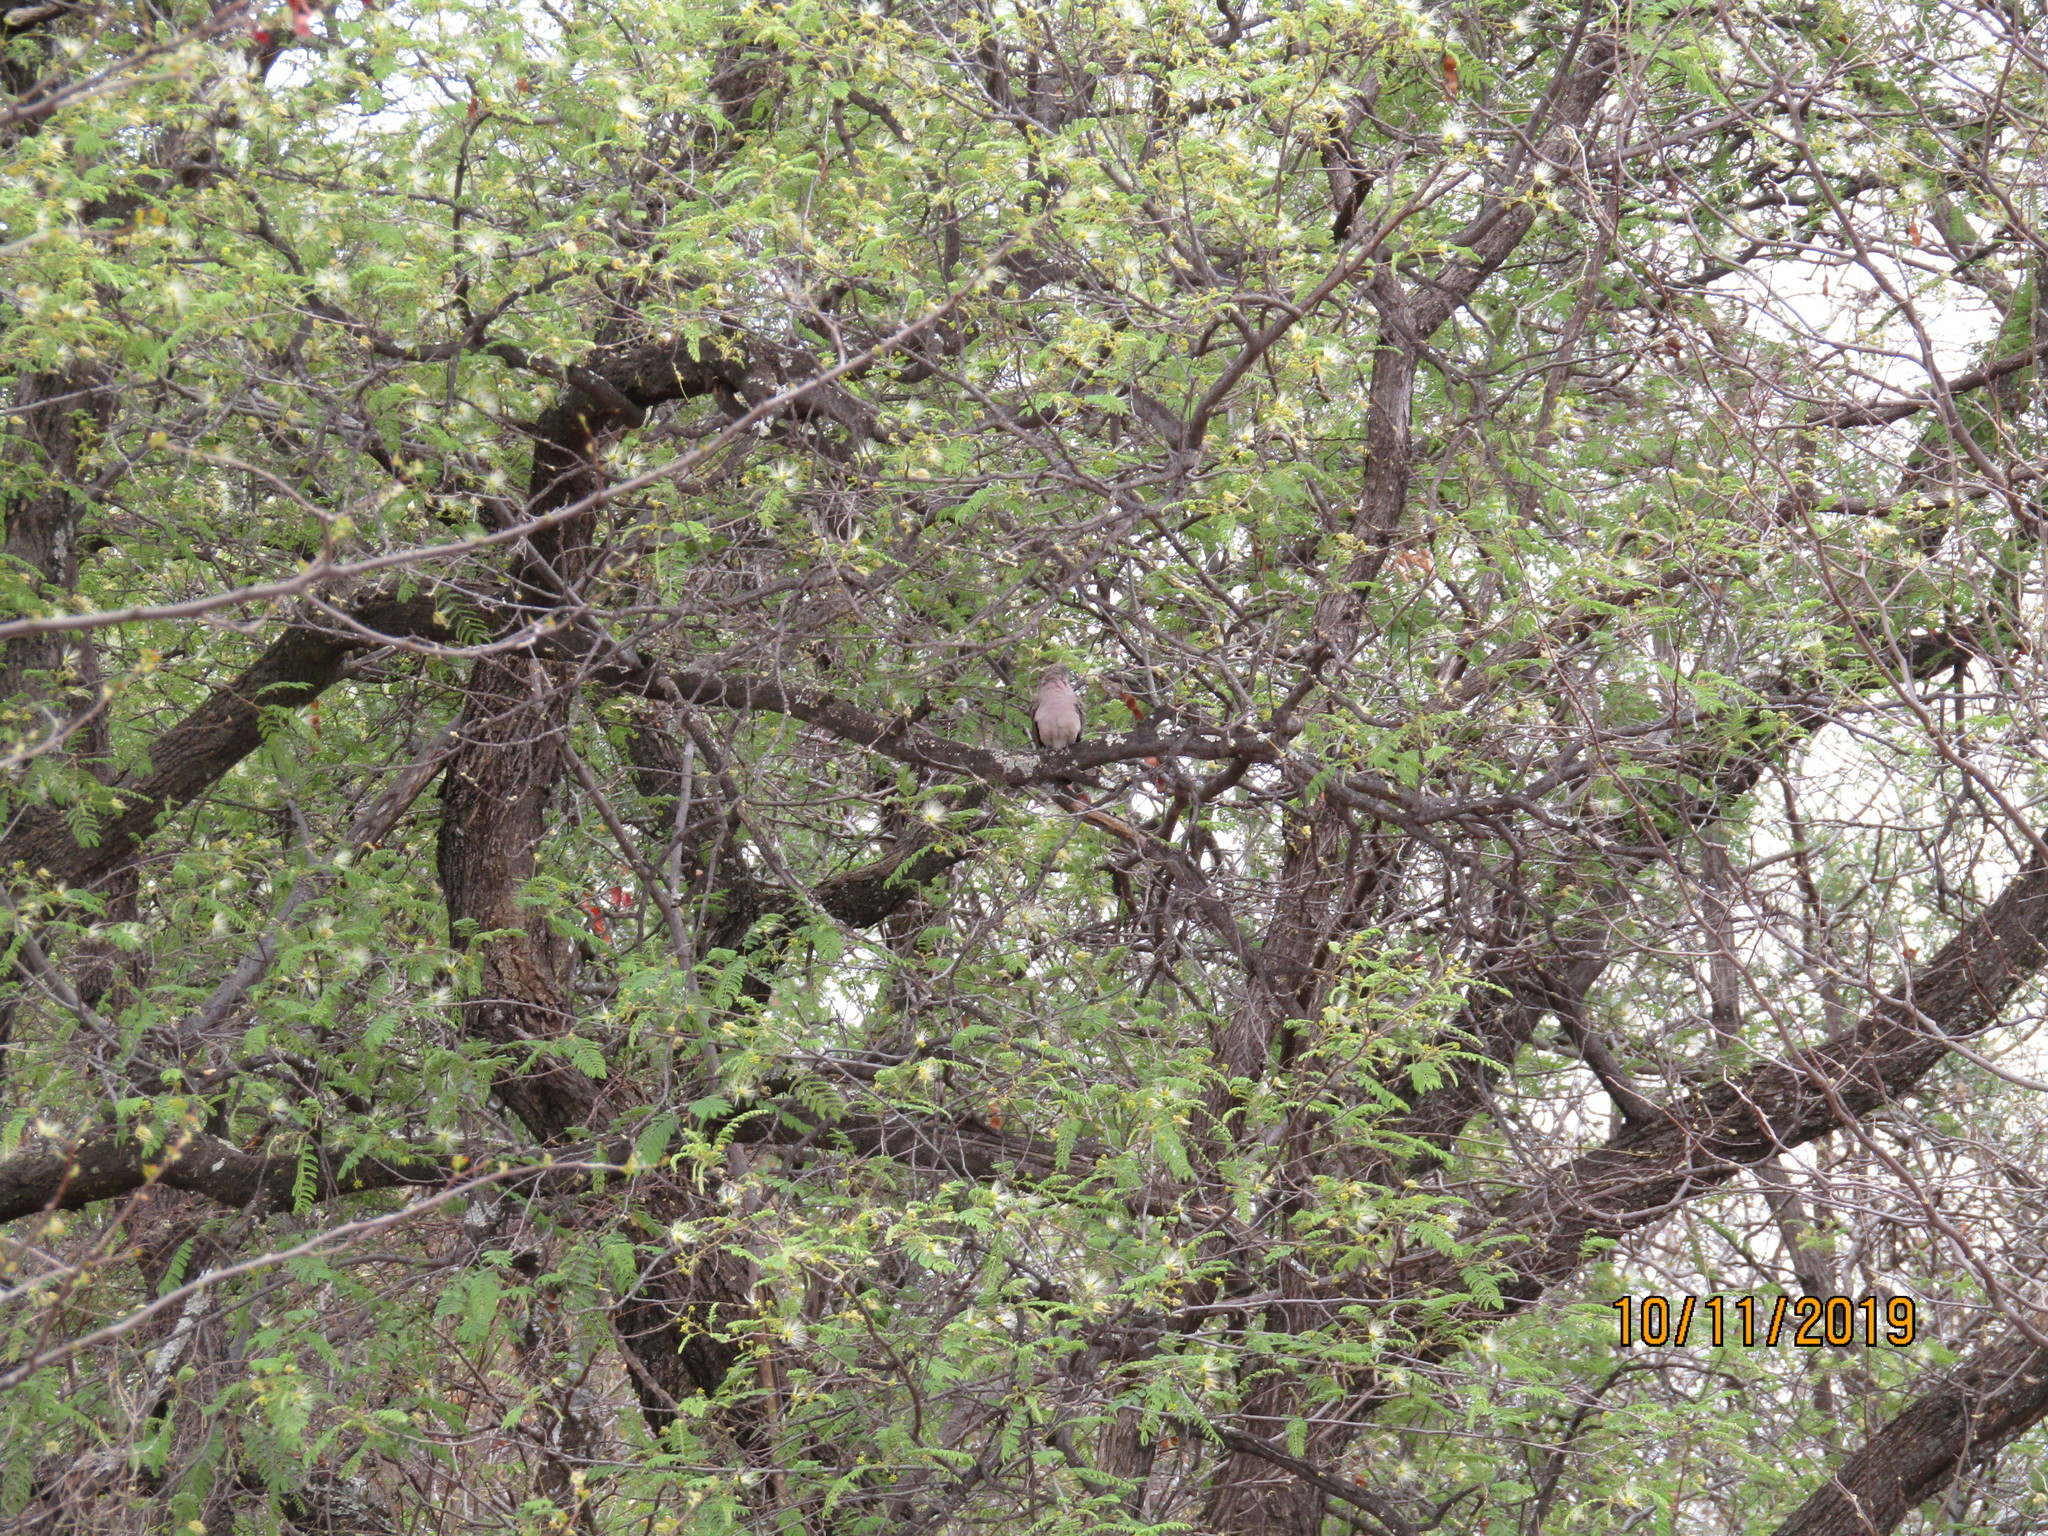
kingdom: Animalia
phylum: Chordata
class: Aves
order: Columbiformes
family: Columbidae
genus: Turtur
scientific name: Turtur chalcospilos
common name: Emerald-spotted wood dove
